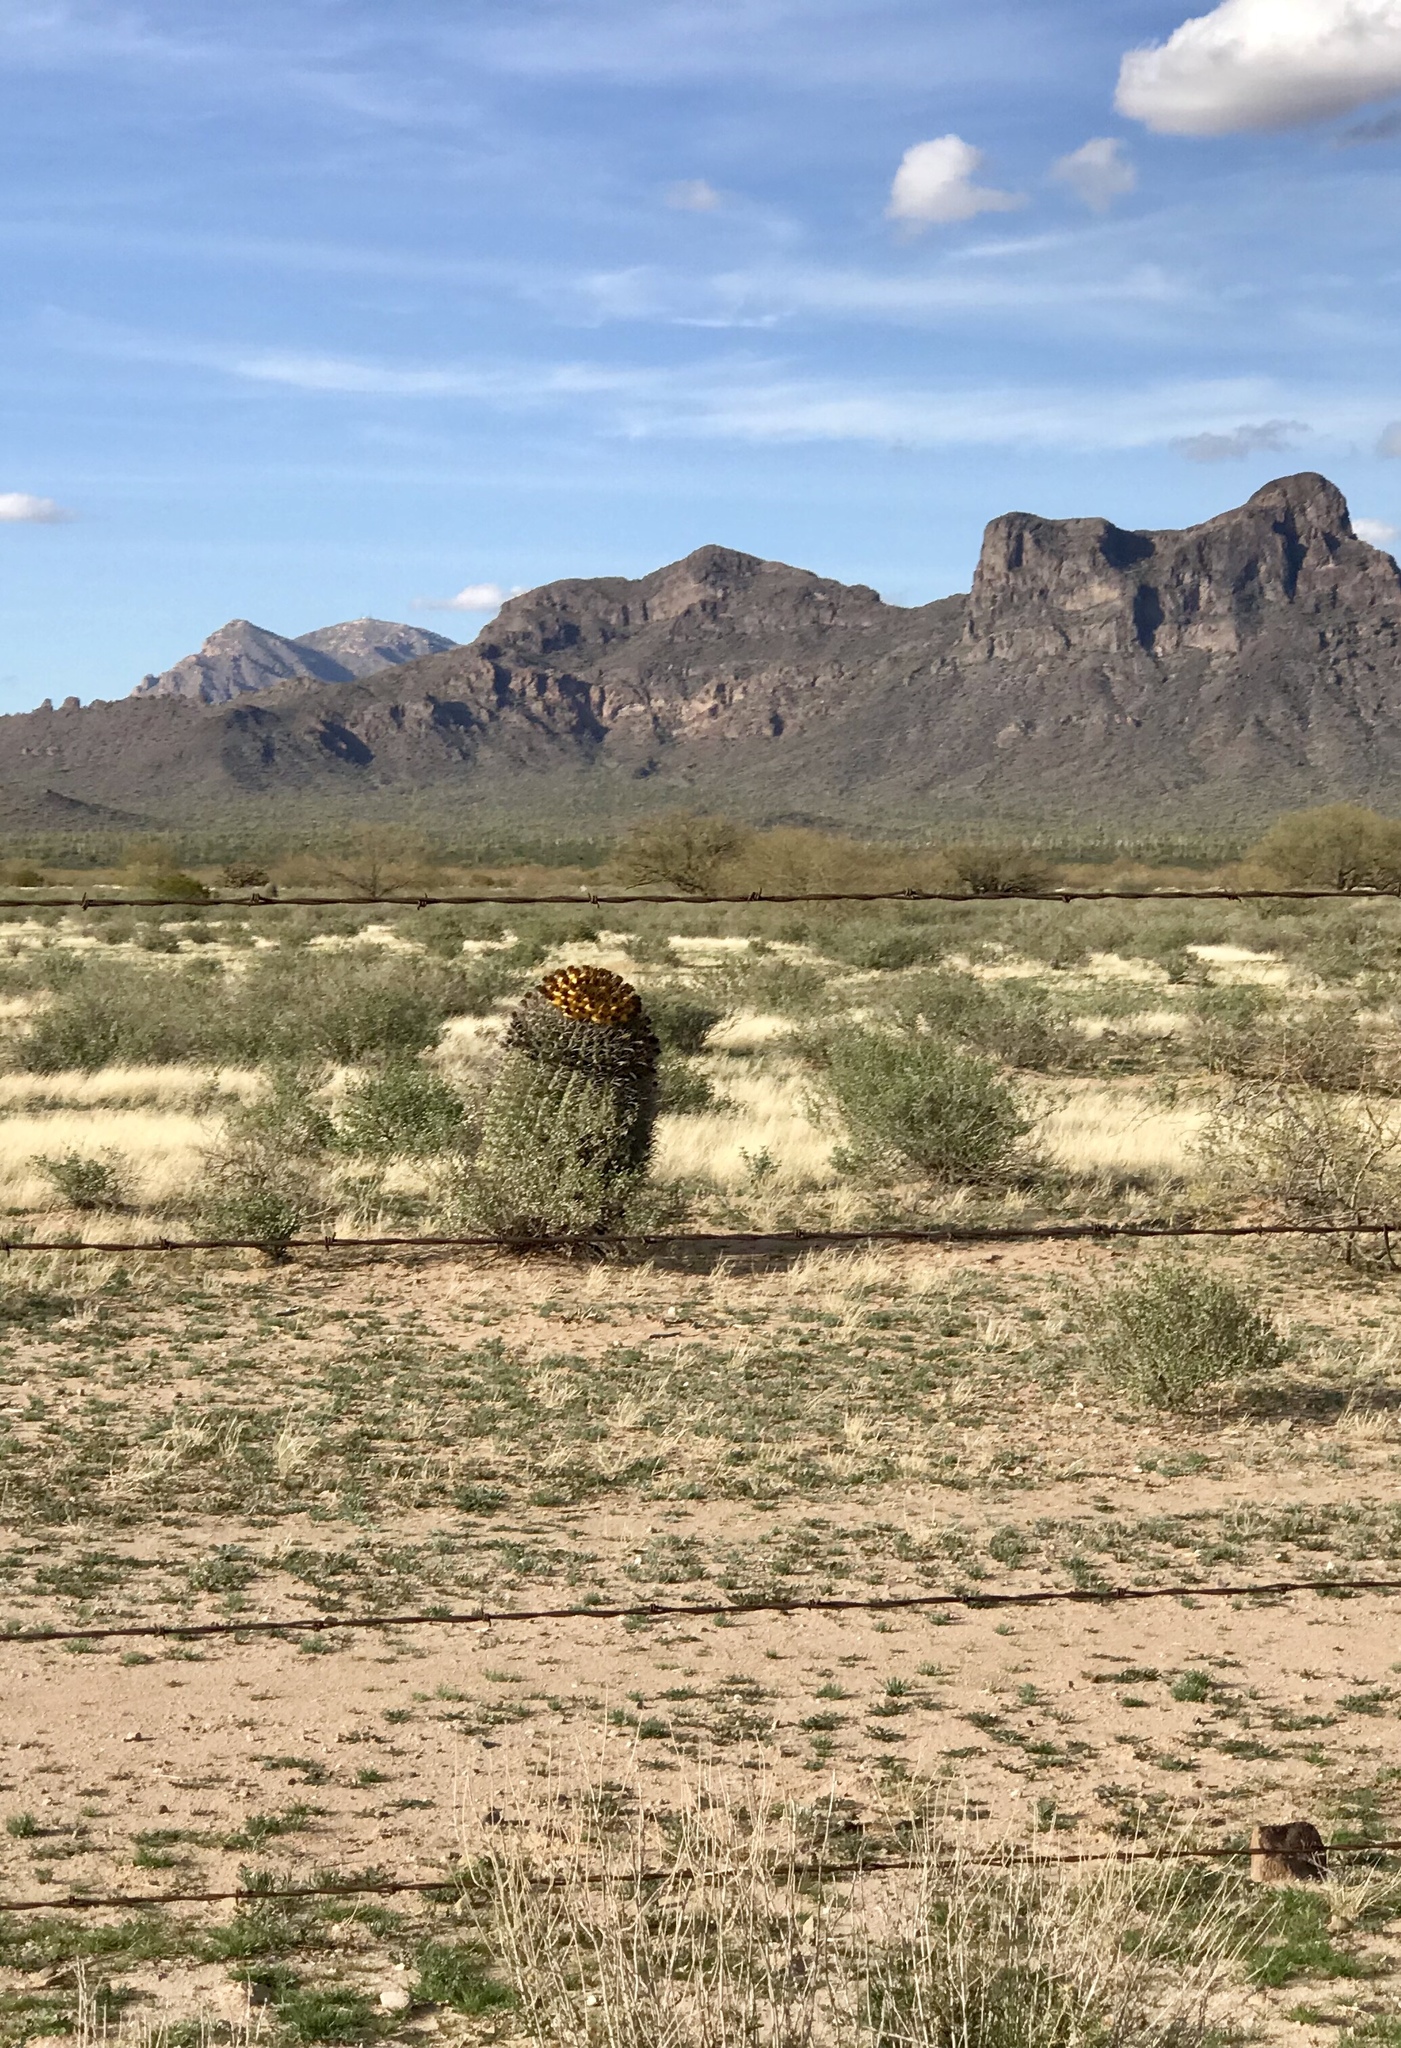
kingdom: Plantae
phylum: Tracheophyta
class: Magnoliopsida
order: Caryophyllales
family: Cactaceae
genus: Ferocactus
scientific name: Ferocactus wislizeni
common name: Candy barrel cactus
